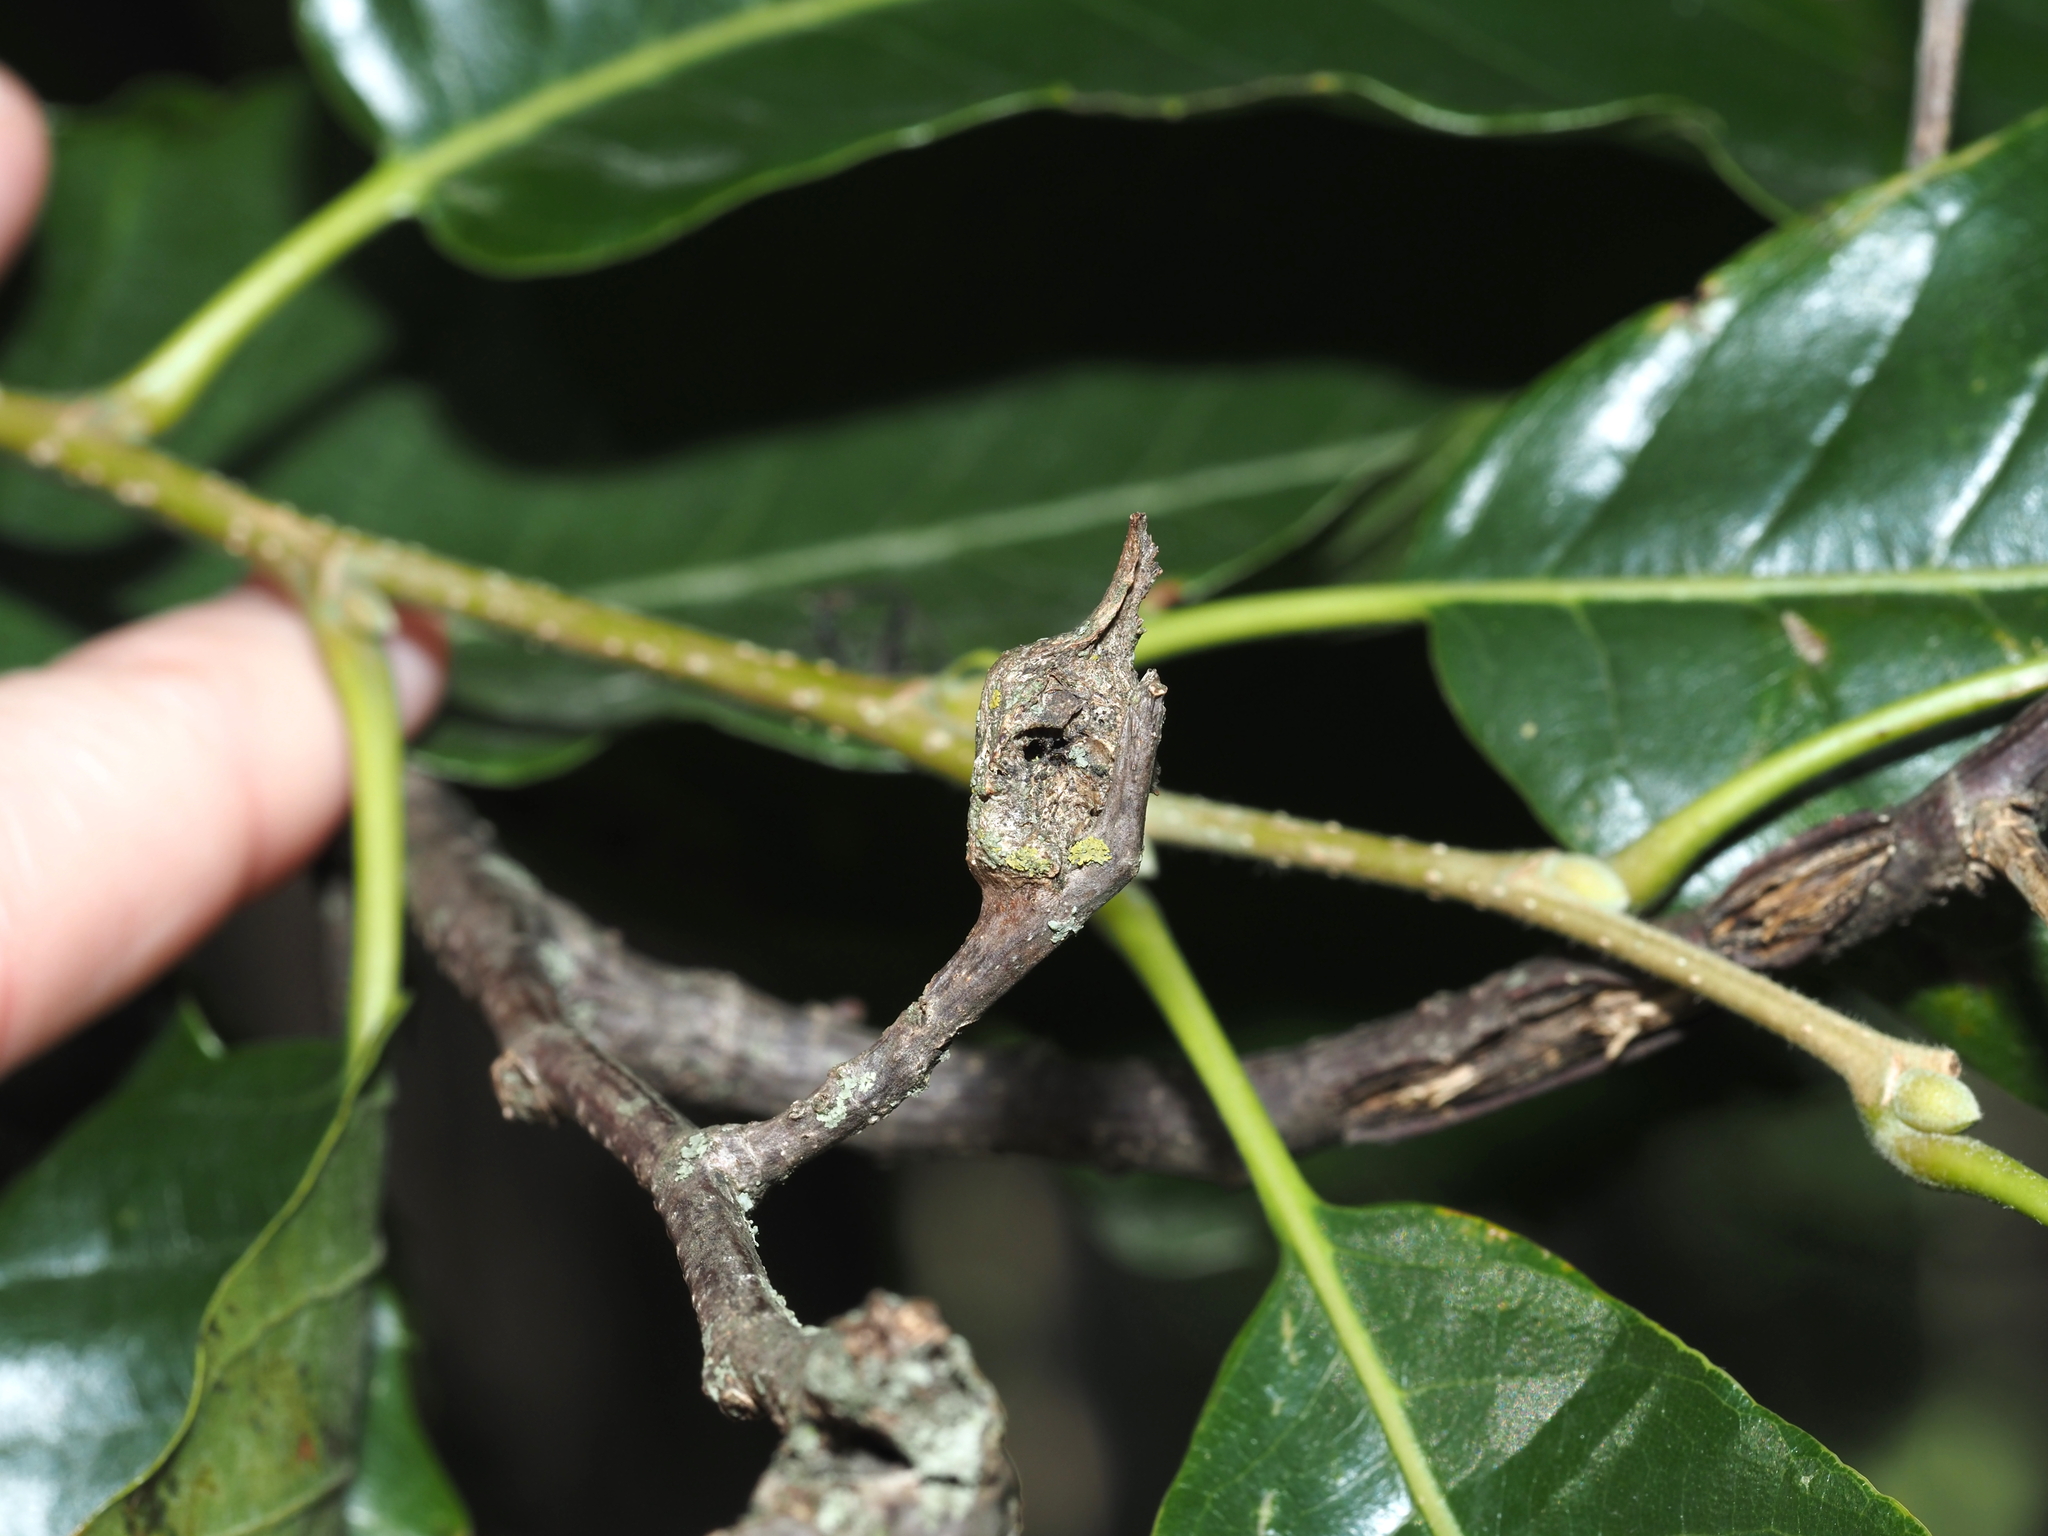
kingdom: Animalia
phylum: Arthropoda
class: Insecta
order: Hymenoptera
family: Cynipidae
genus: Dryocosmus
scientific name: Dryocosmus kuriphilus
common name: Asian chestnut gall wasp
